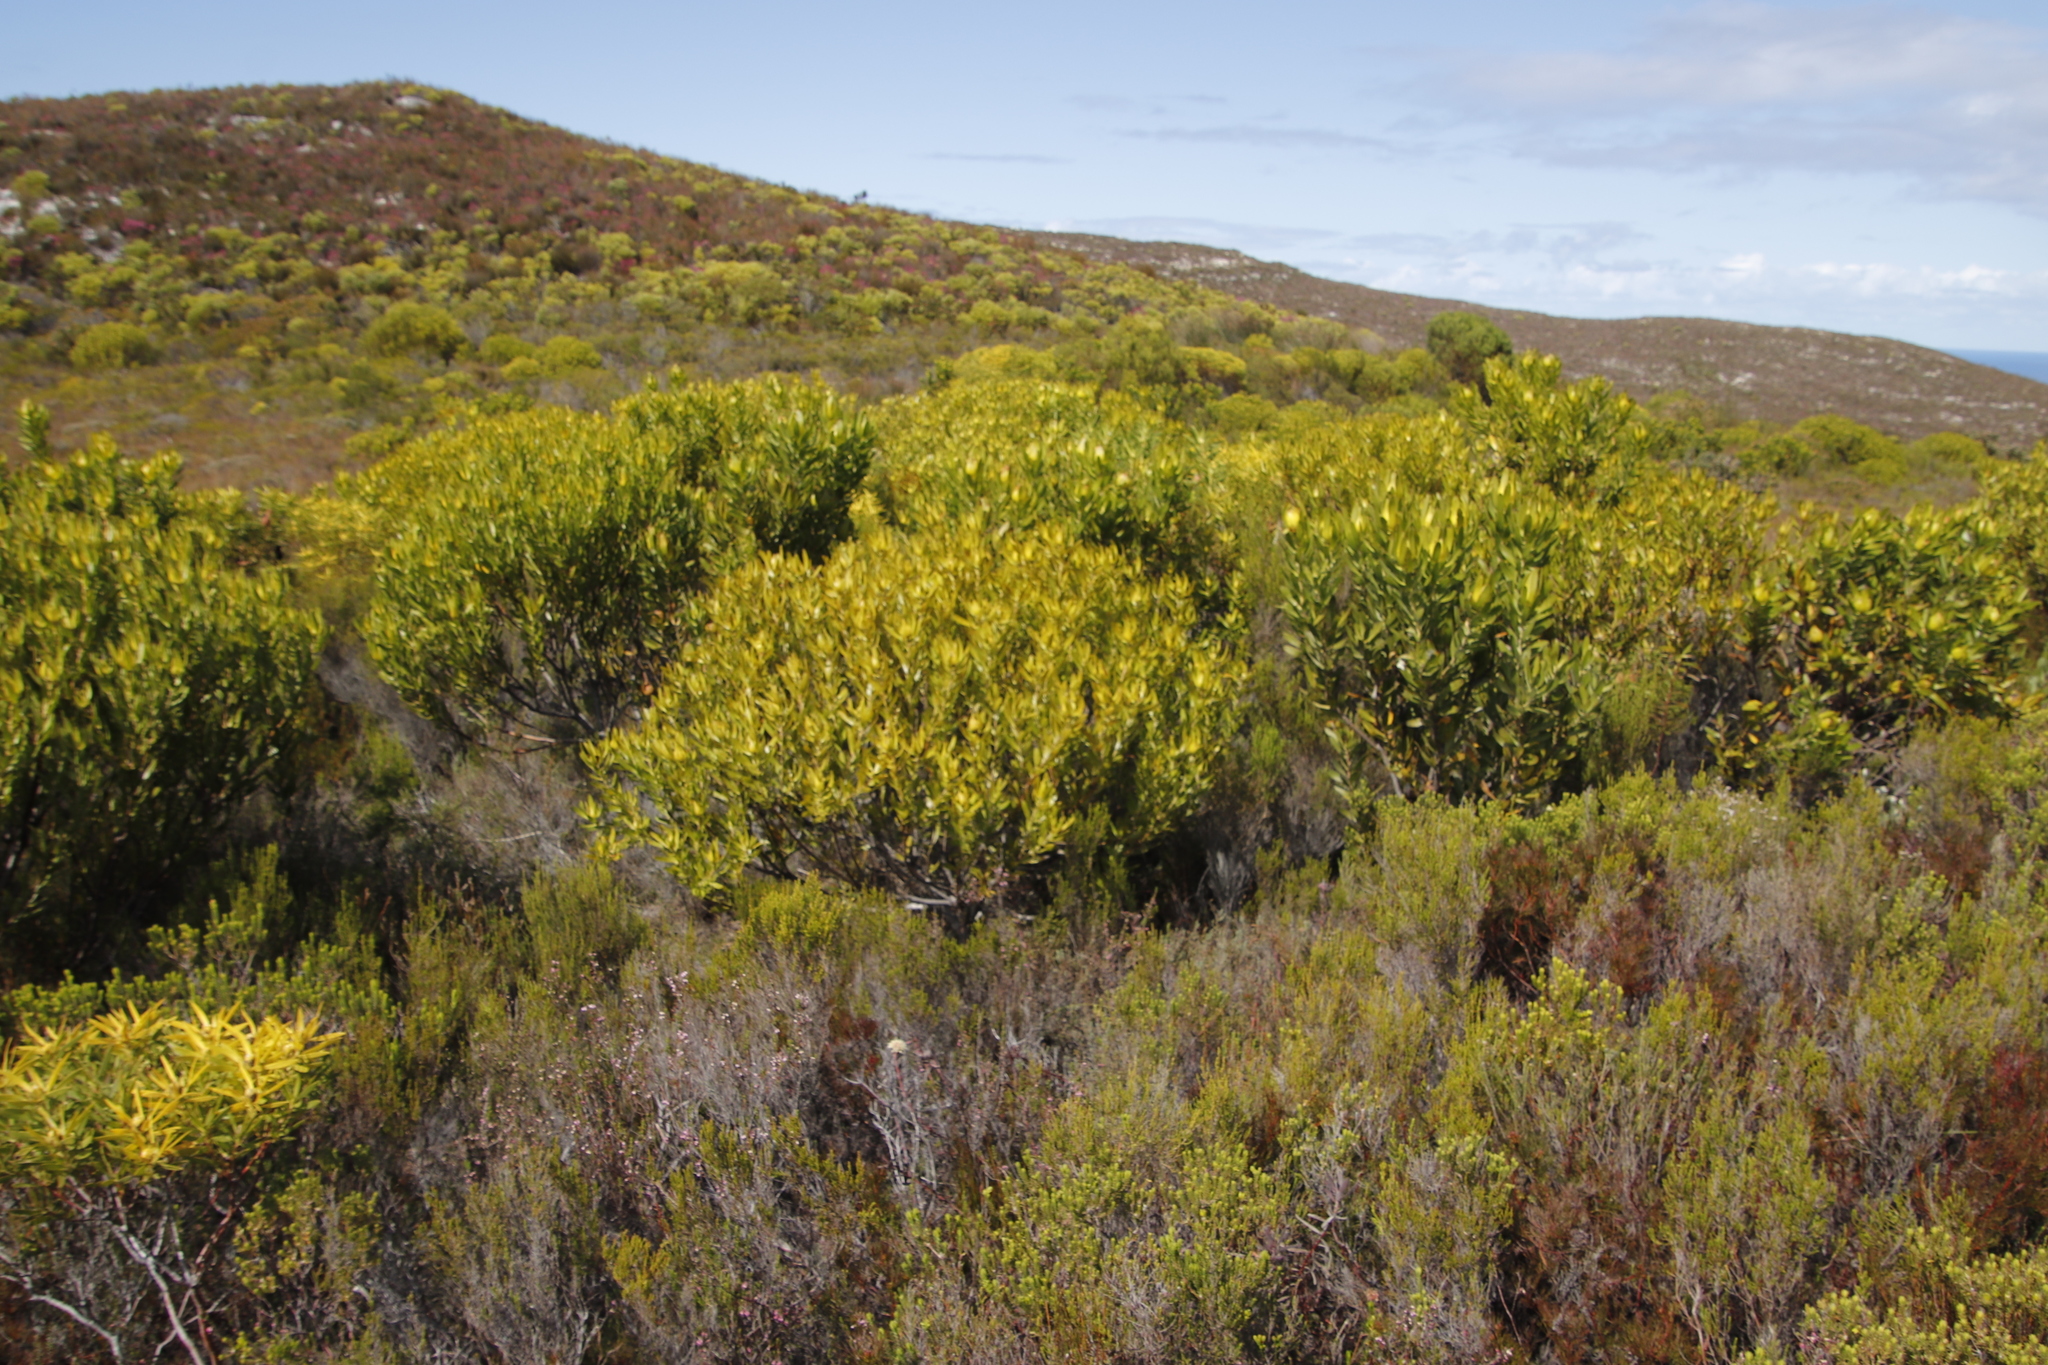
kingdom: Plantae
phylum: Tracheophyta
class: Magnoliopsida
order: Proteales
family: Proteaceae
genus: Leucadendron
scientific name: Leucadendron coniferum
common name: Dune conebush
